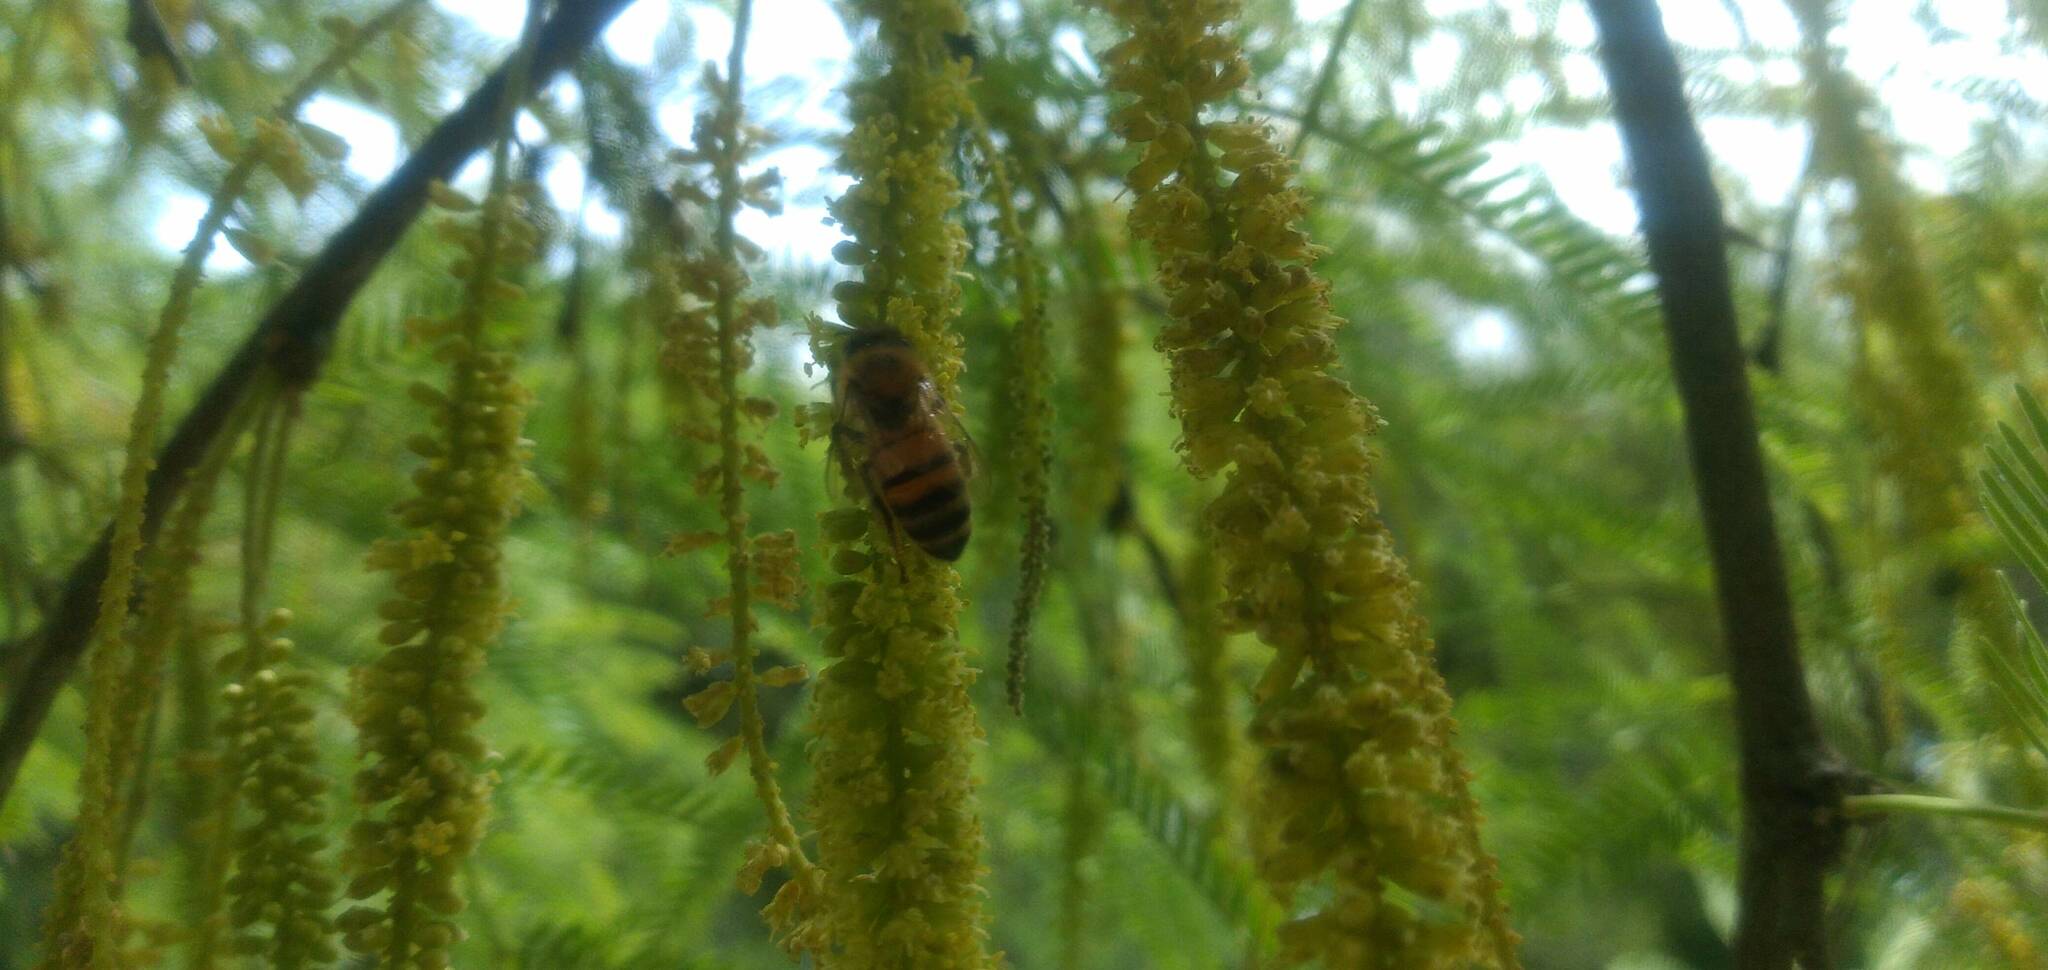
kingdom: Animalia
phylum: Arthropoda
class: Insecta
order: Hymenoptera
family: Apidae
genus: Apis
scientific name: Apis mellifera
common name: Honey bee
